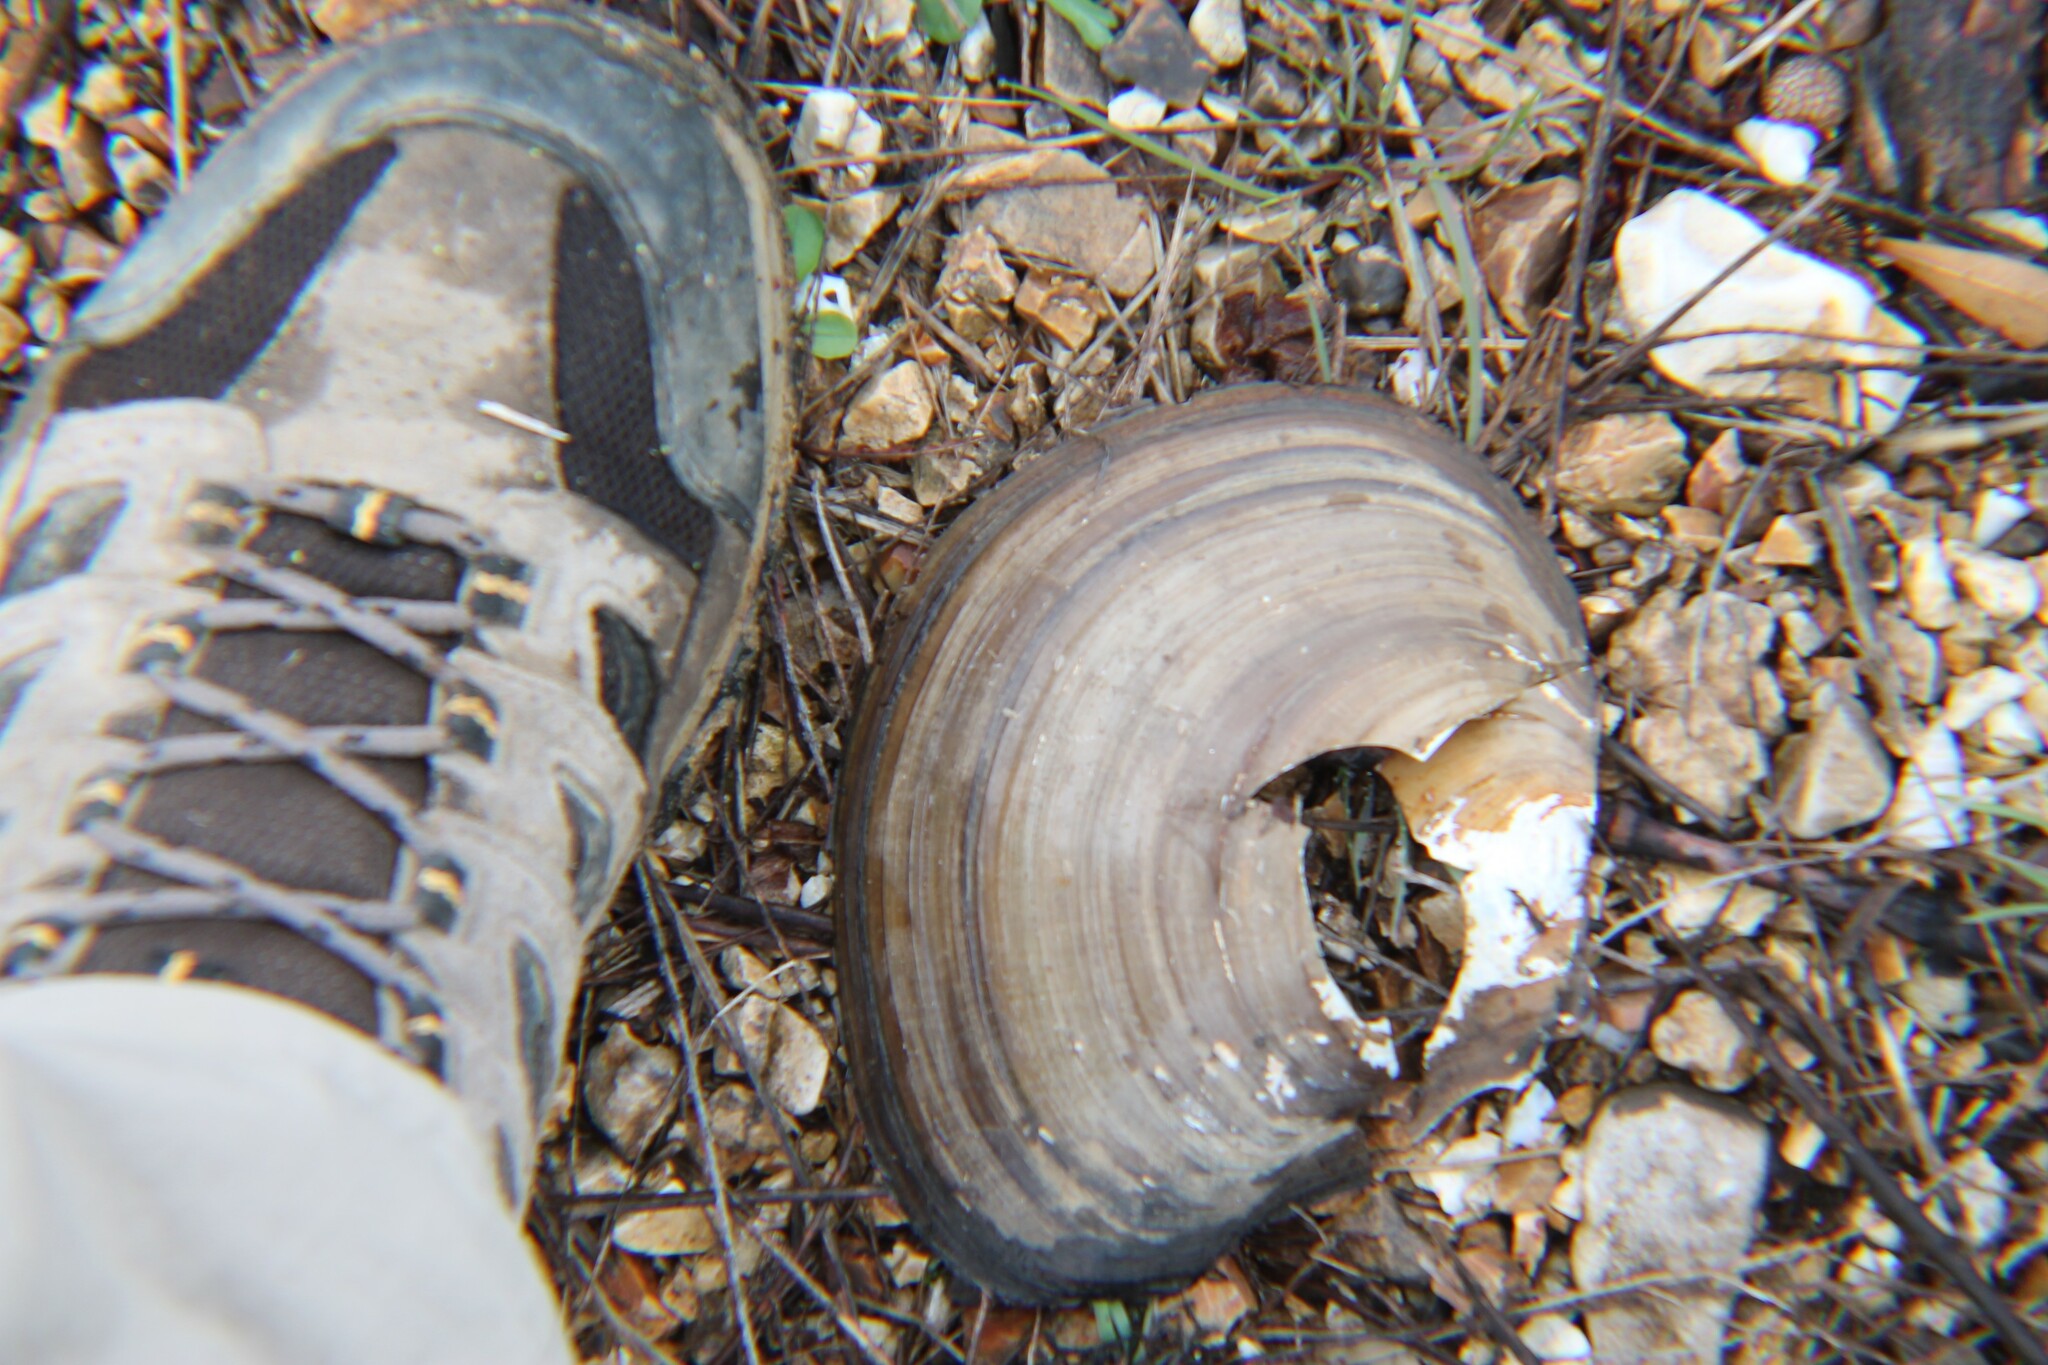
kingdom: Animalia
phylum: Mollusca
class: Bivalvia
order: Unionida
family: Unionidae
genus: Utterbackiana
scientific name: Utterbackiana suborbiculata
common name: Flat floater
